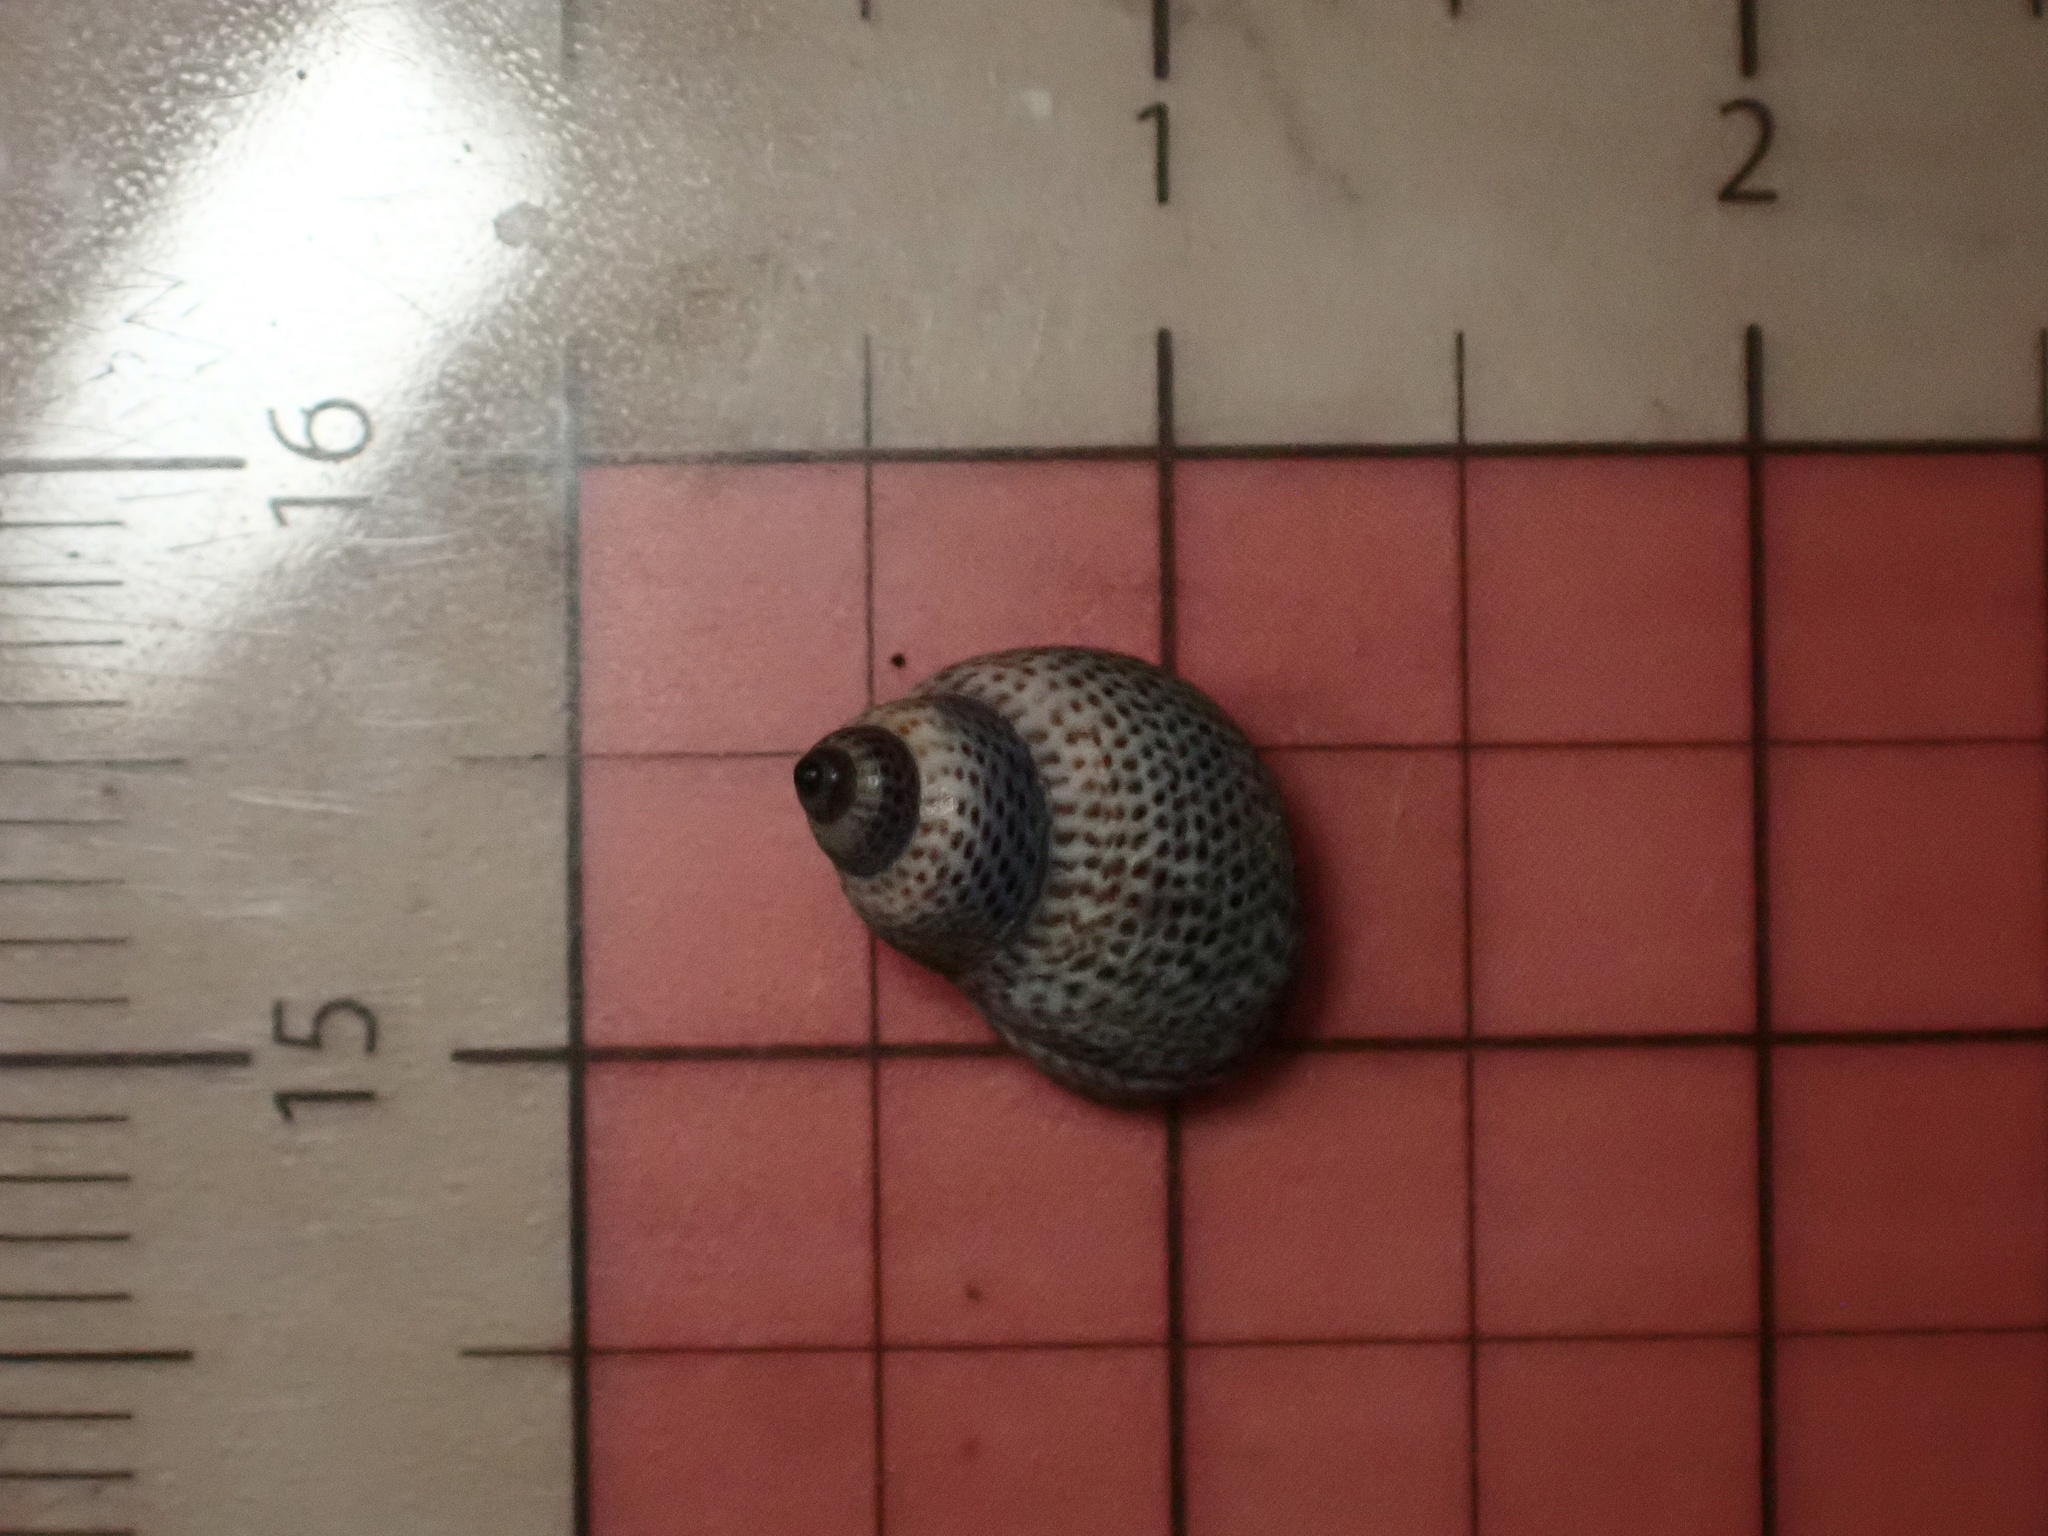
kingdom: Animalia
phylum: Mollusca
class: Gastropoda
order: Littorinimorpha
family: Littorinidae
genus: Littoraria
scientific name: Littoraria pintado
